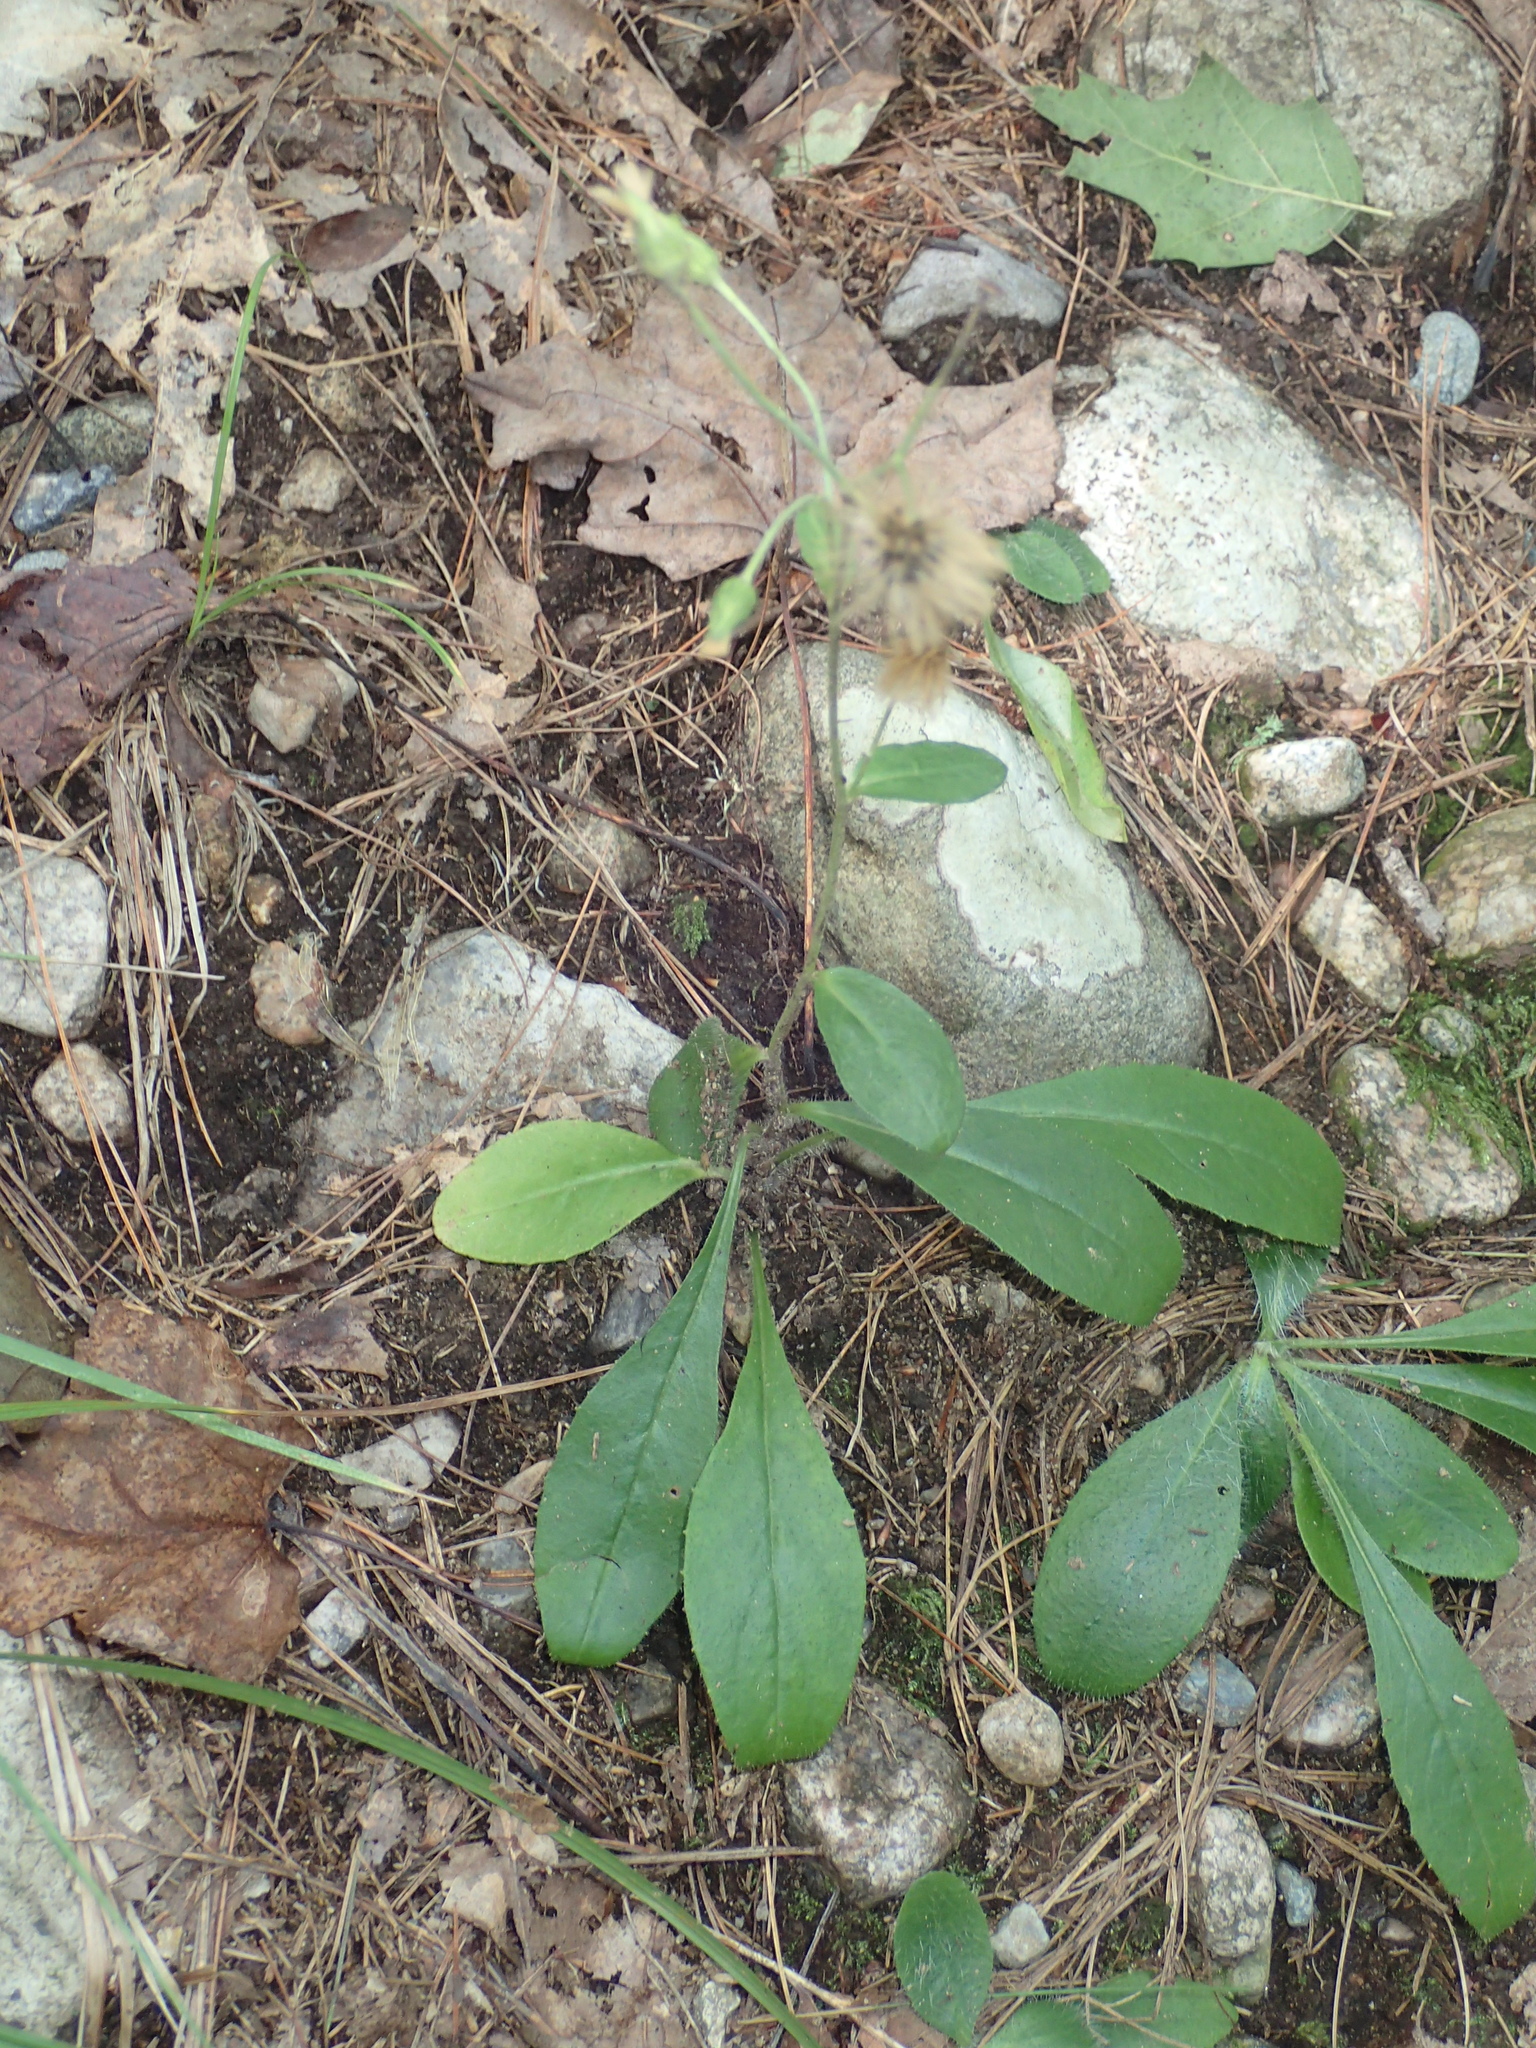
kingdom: Plantae
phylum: Tracheophyta
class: Magnoliopsida
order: Asterales
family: Asteraceae
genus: Hieracium
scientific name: Hieracium scabrum
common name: Rough hawkweed
